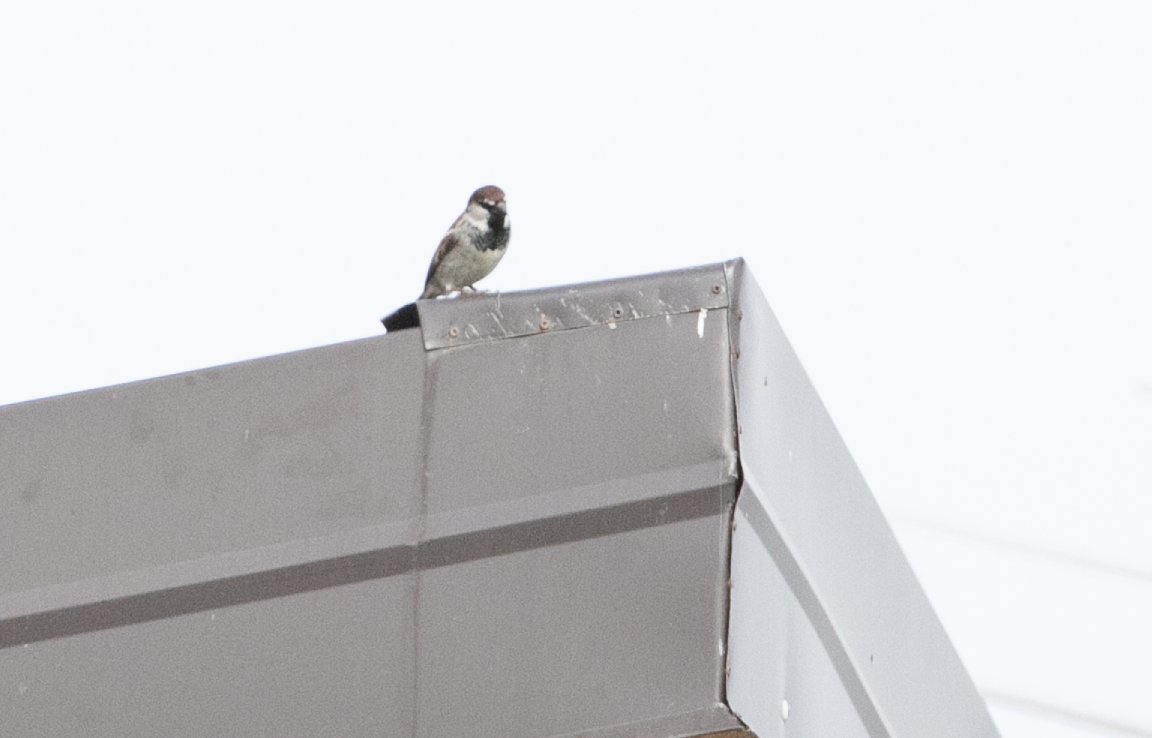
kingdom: Animalia
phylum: Chordata
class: Aves
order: Passeriformes
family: Passeridae
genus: Passer
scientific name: Passer italiae
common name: Italian sparrow
